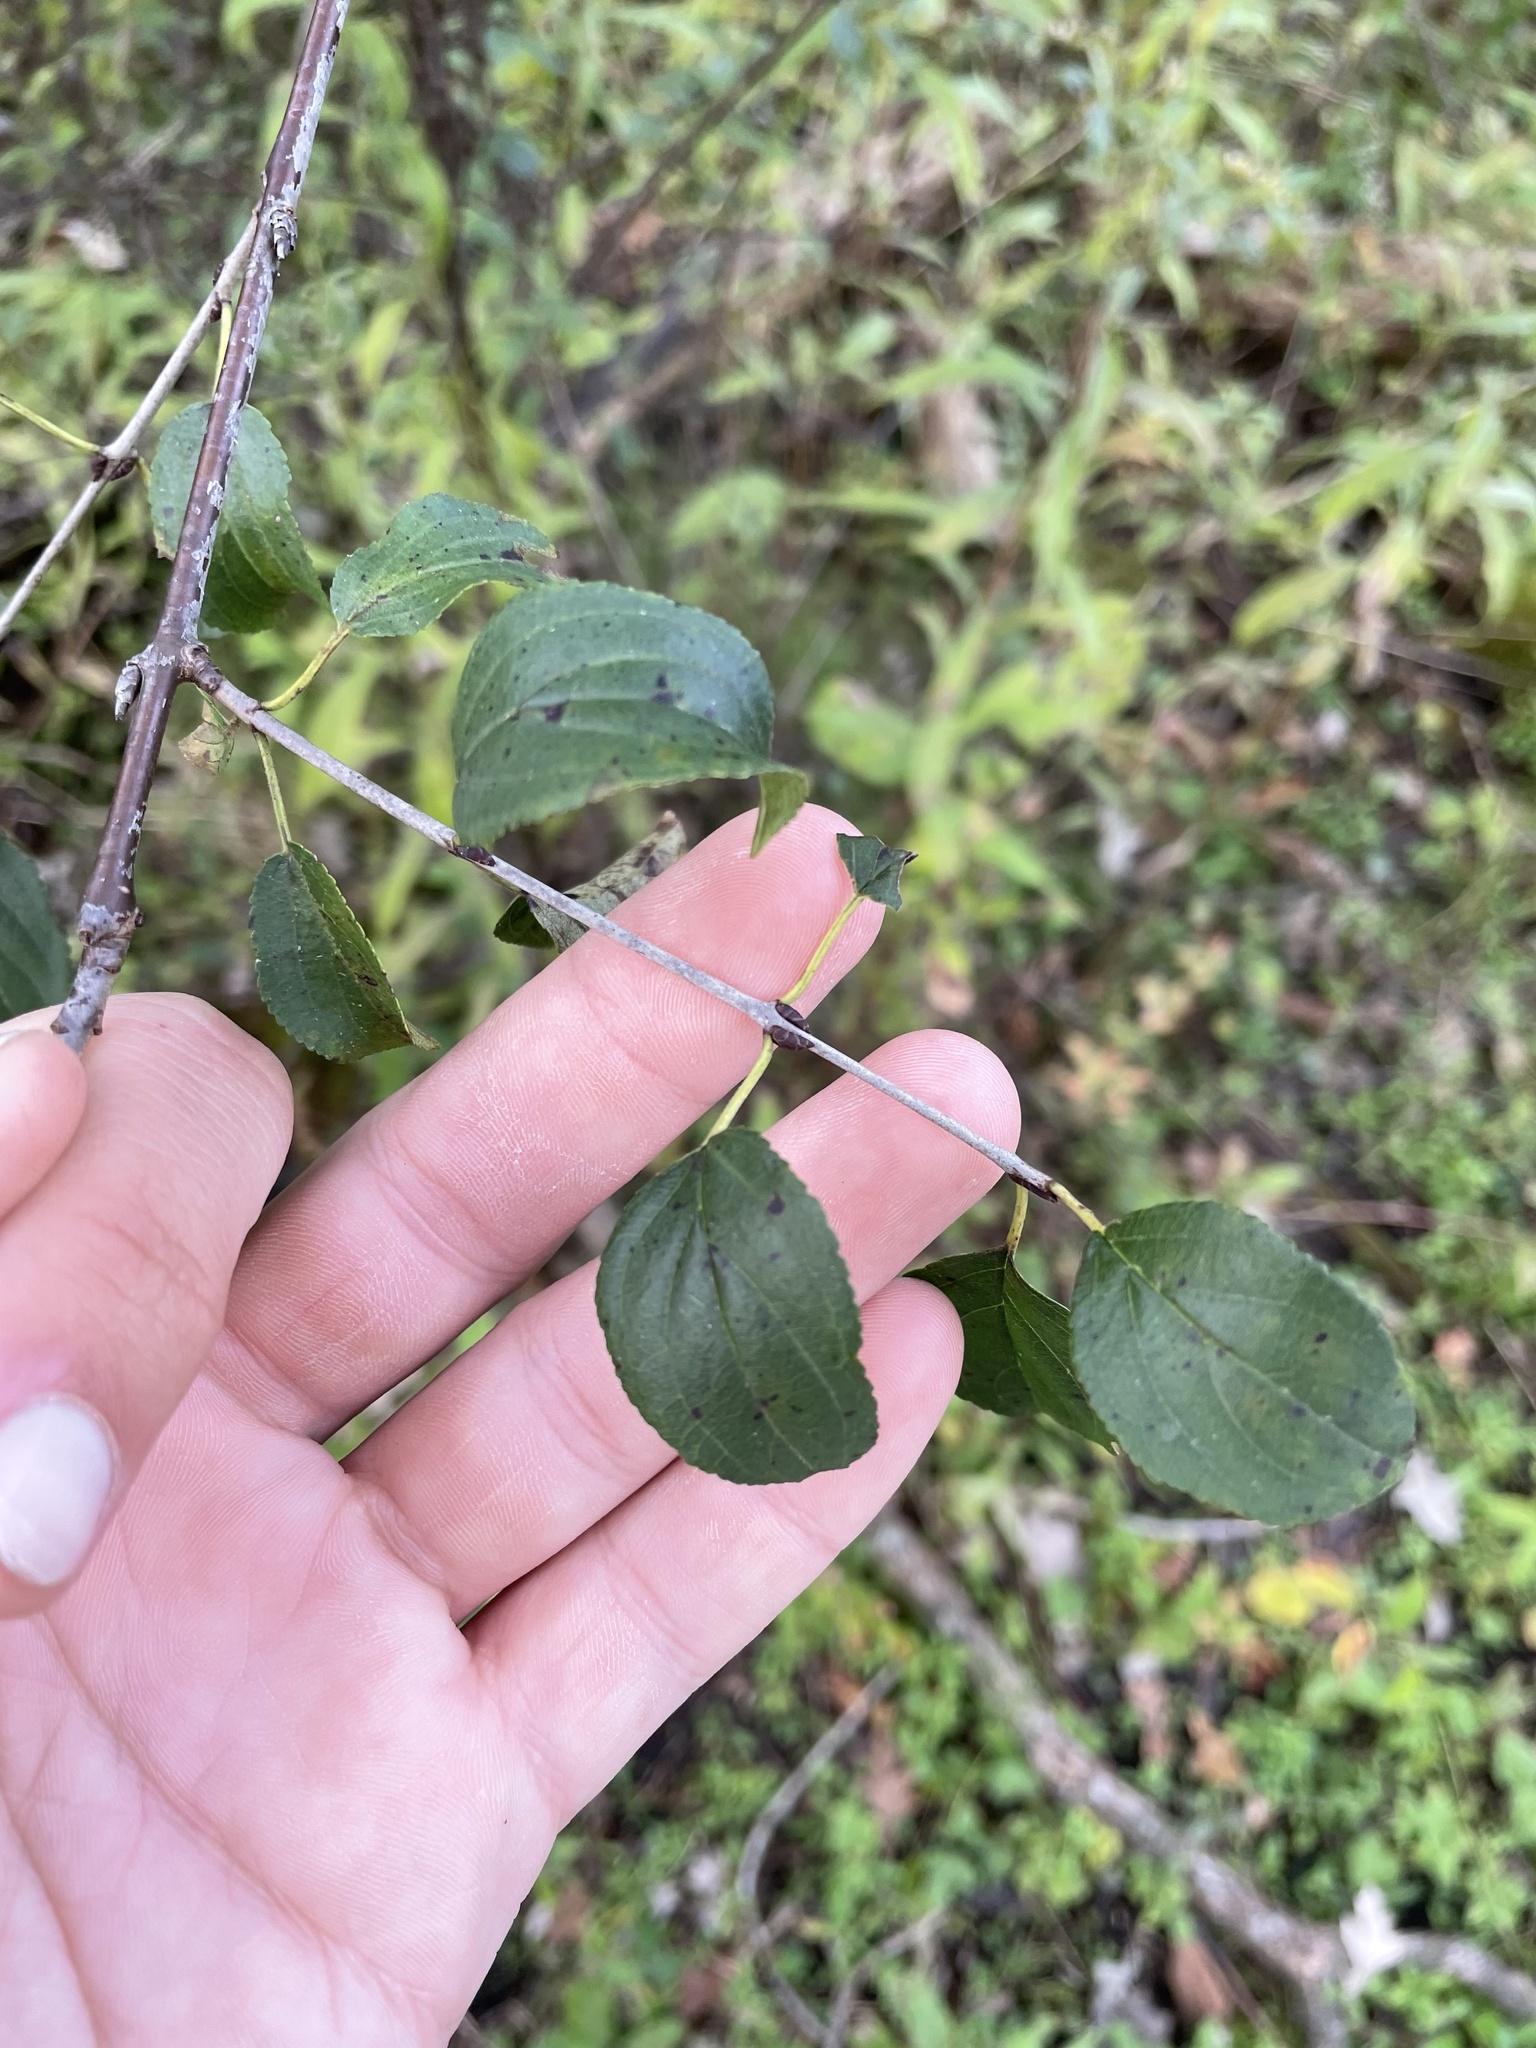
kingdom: Plantae
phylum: Tracheophyta
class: Magnoliopsida
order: Rosales
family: Rhamnaceae
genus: Rhamnus
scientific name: Rhamnus cathartica
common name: Common buckthorn
